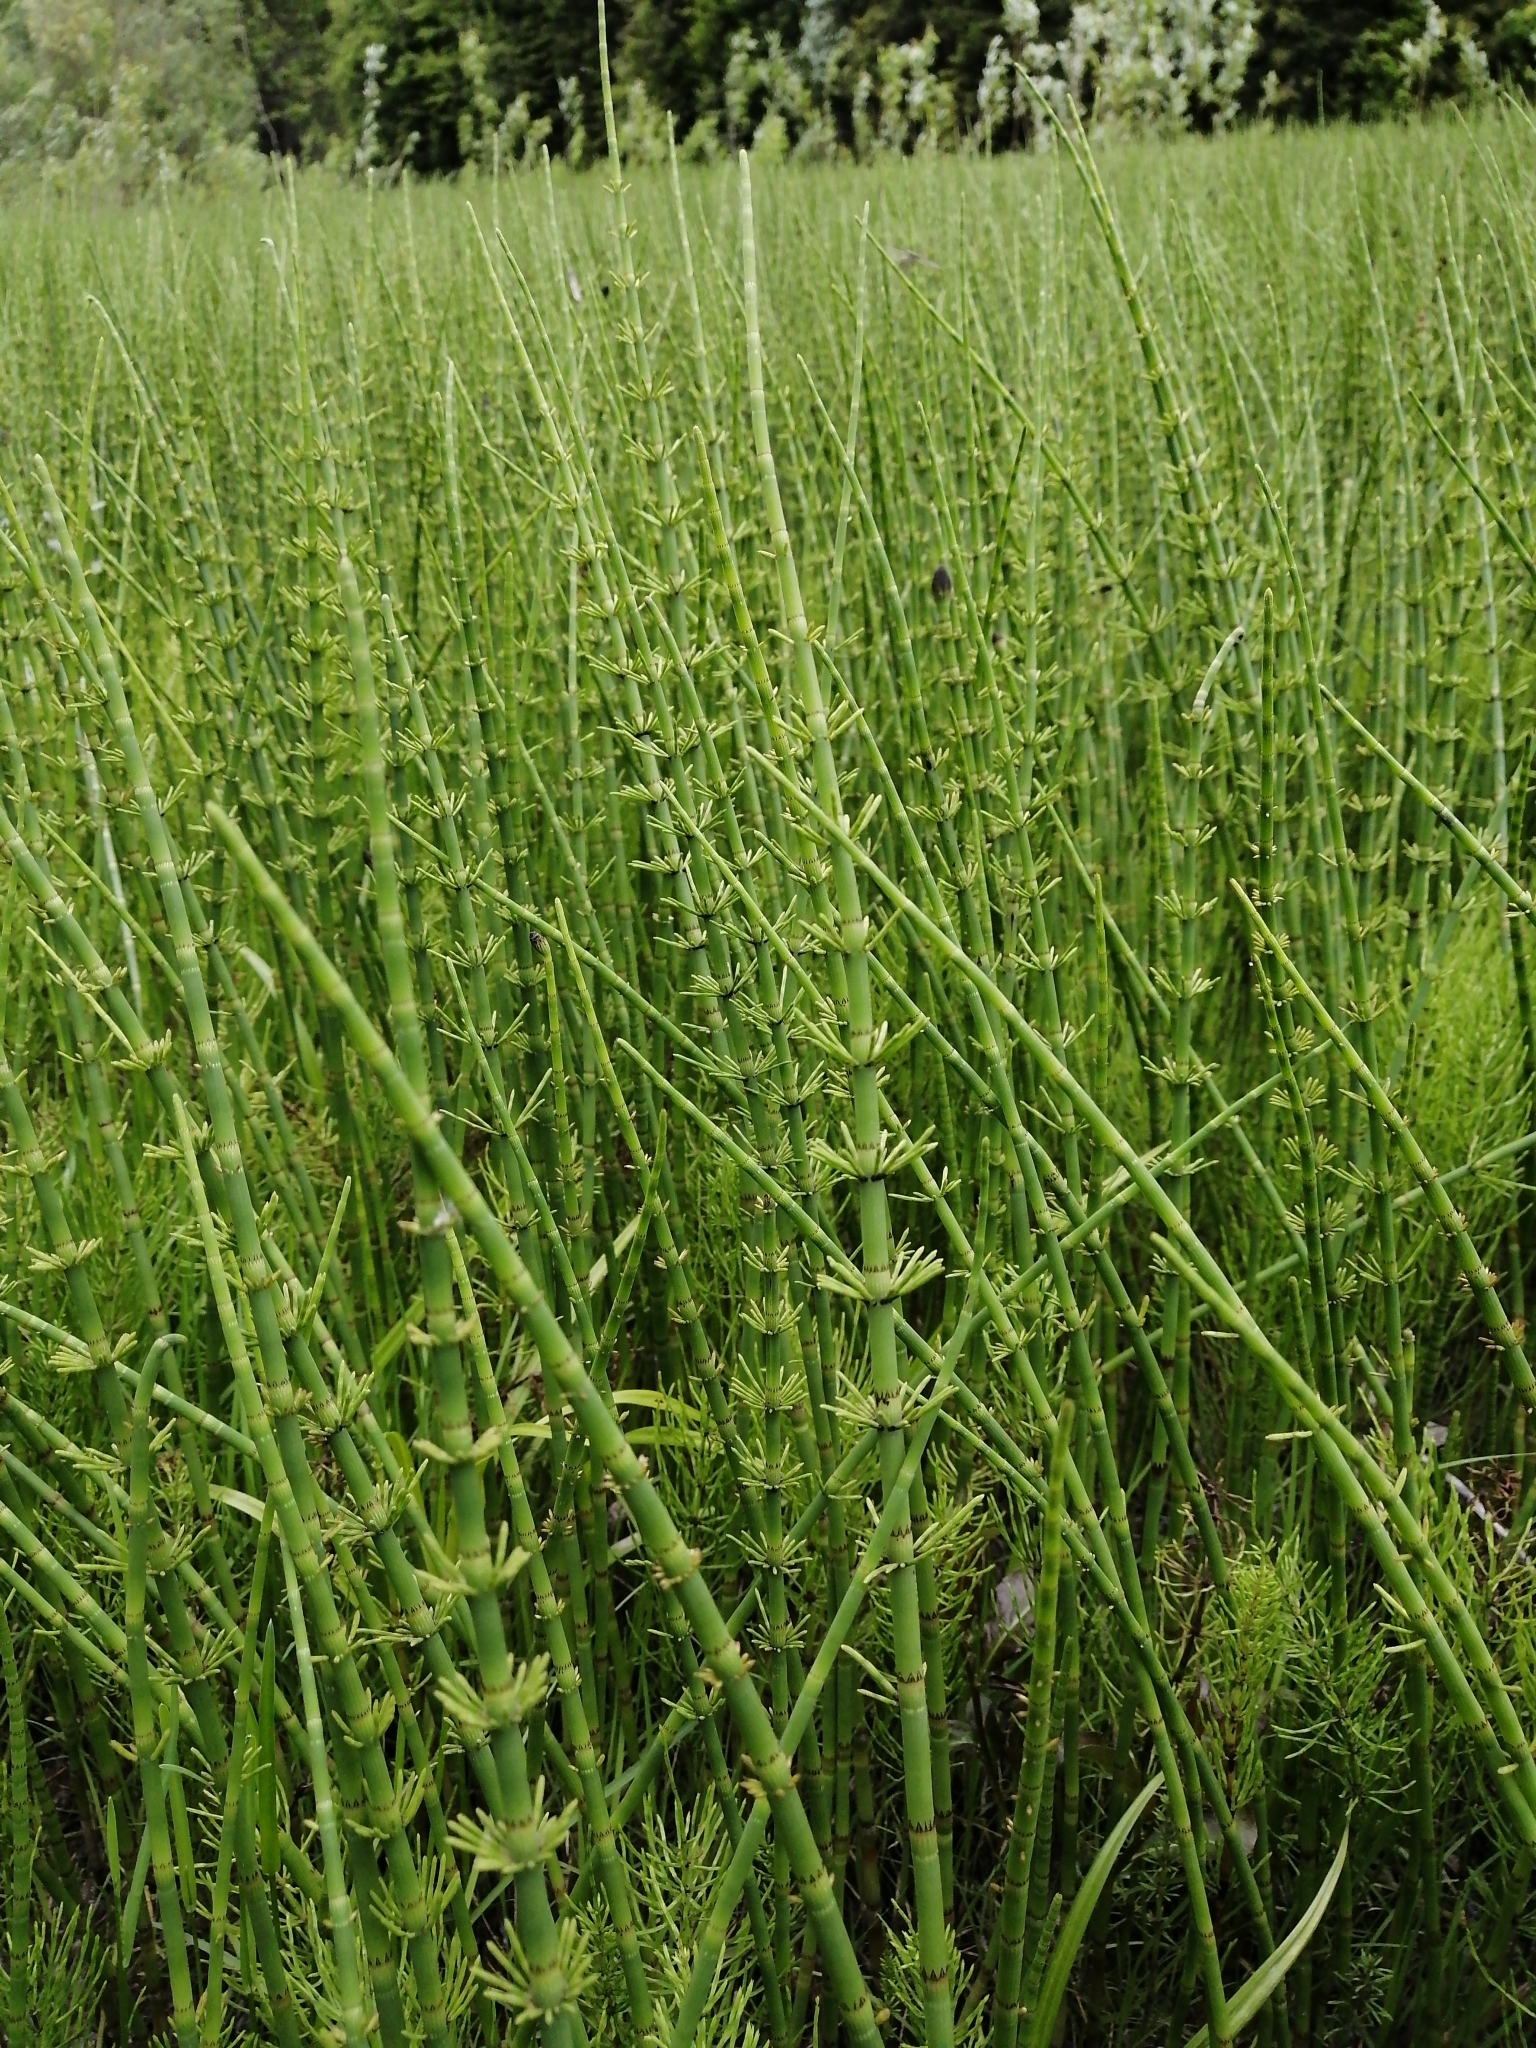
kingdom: Plantae
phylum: Tracheophyta
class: Polypodiopsida
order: Equisetales
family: Equisetaceae
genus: Equisetum
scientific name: Equisetum fluviatile
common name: Water horsetail
